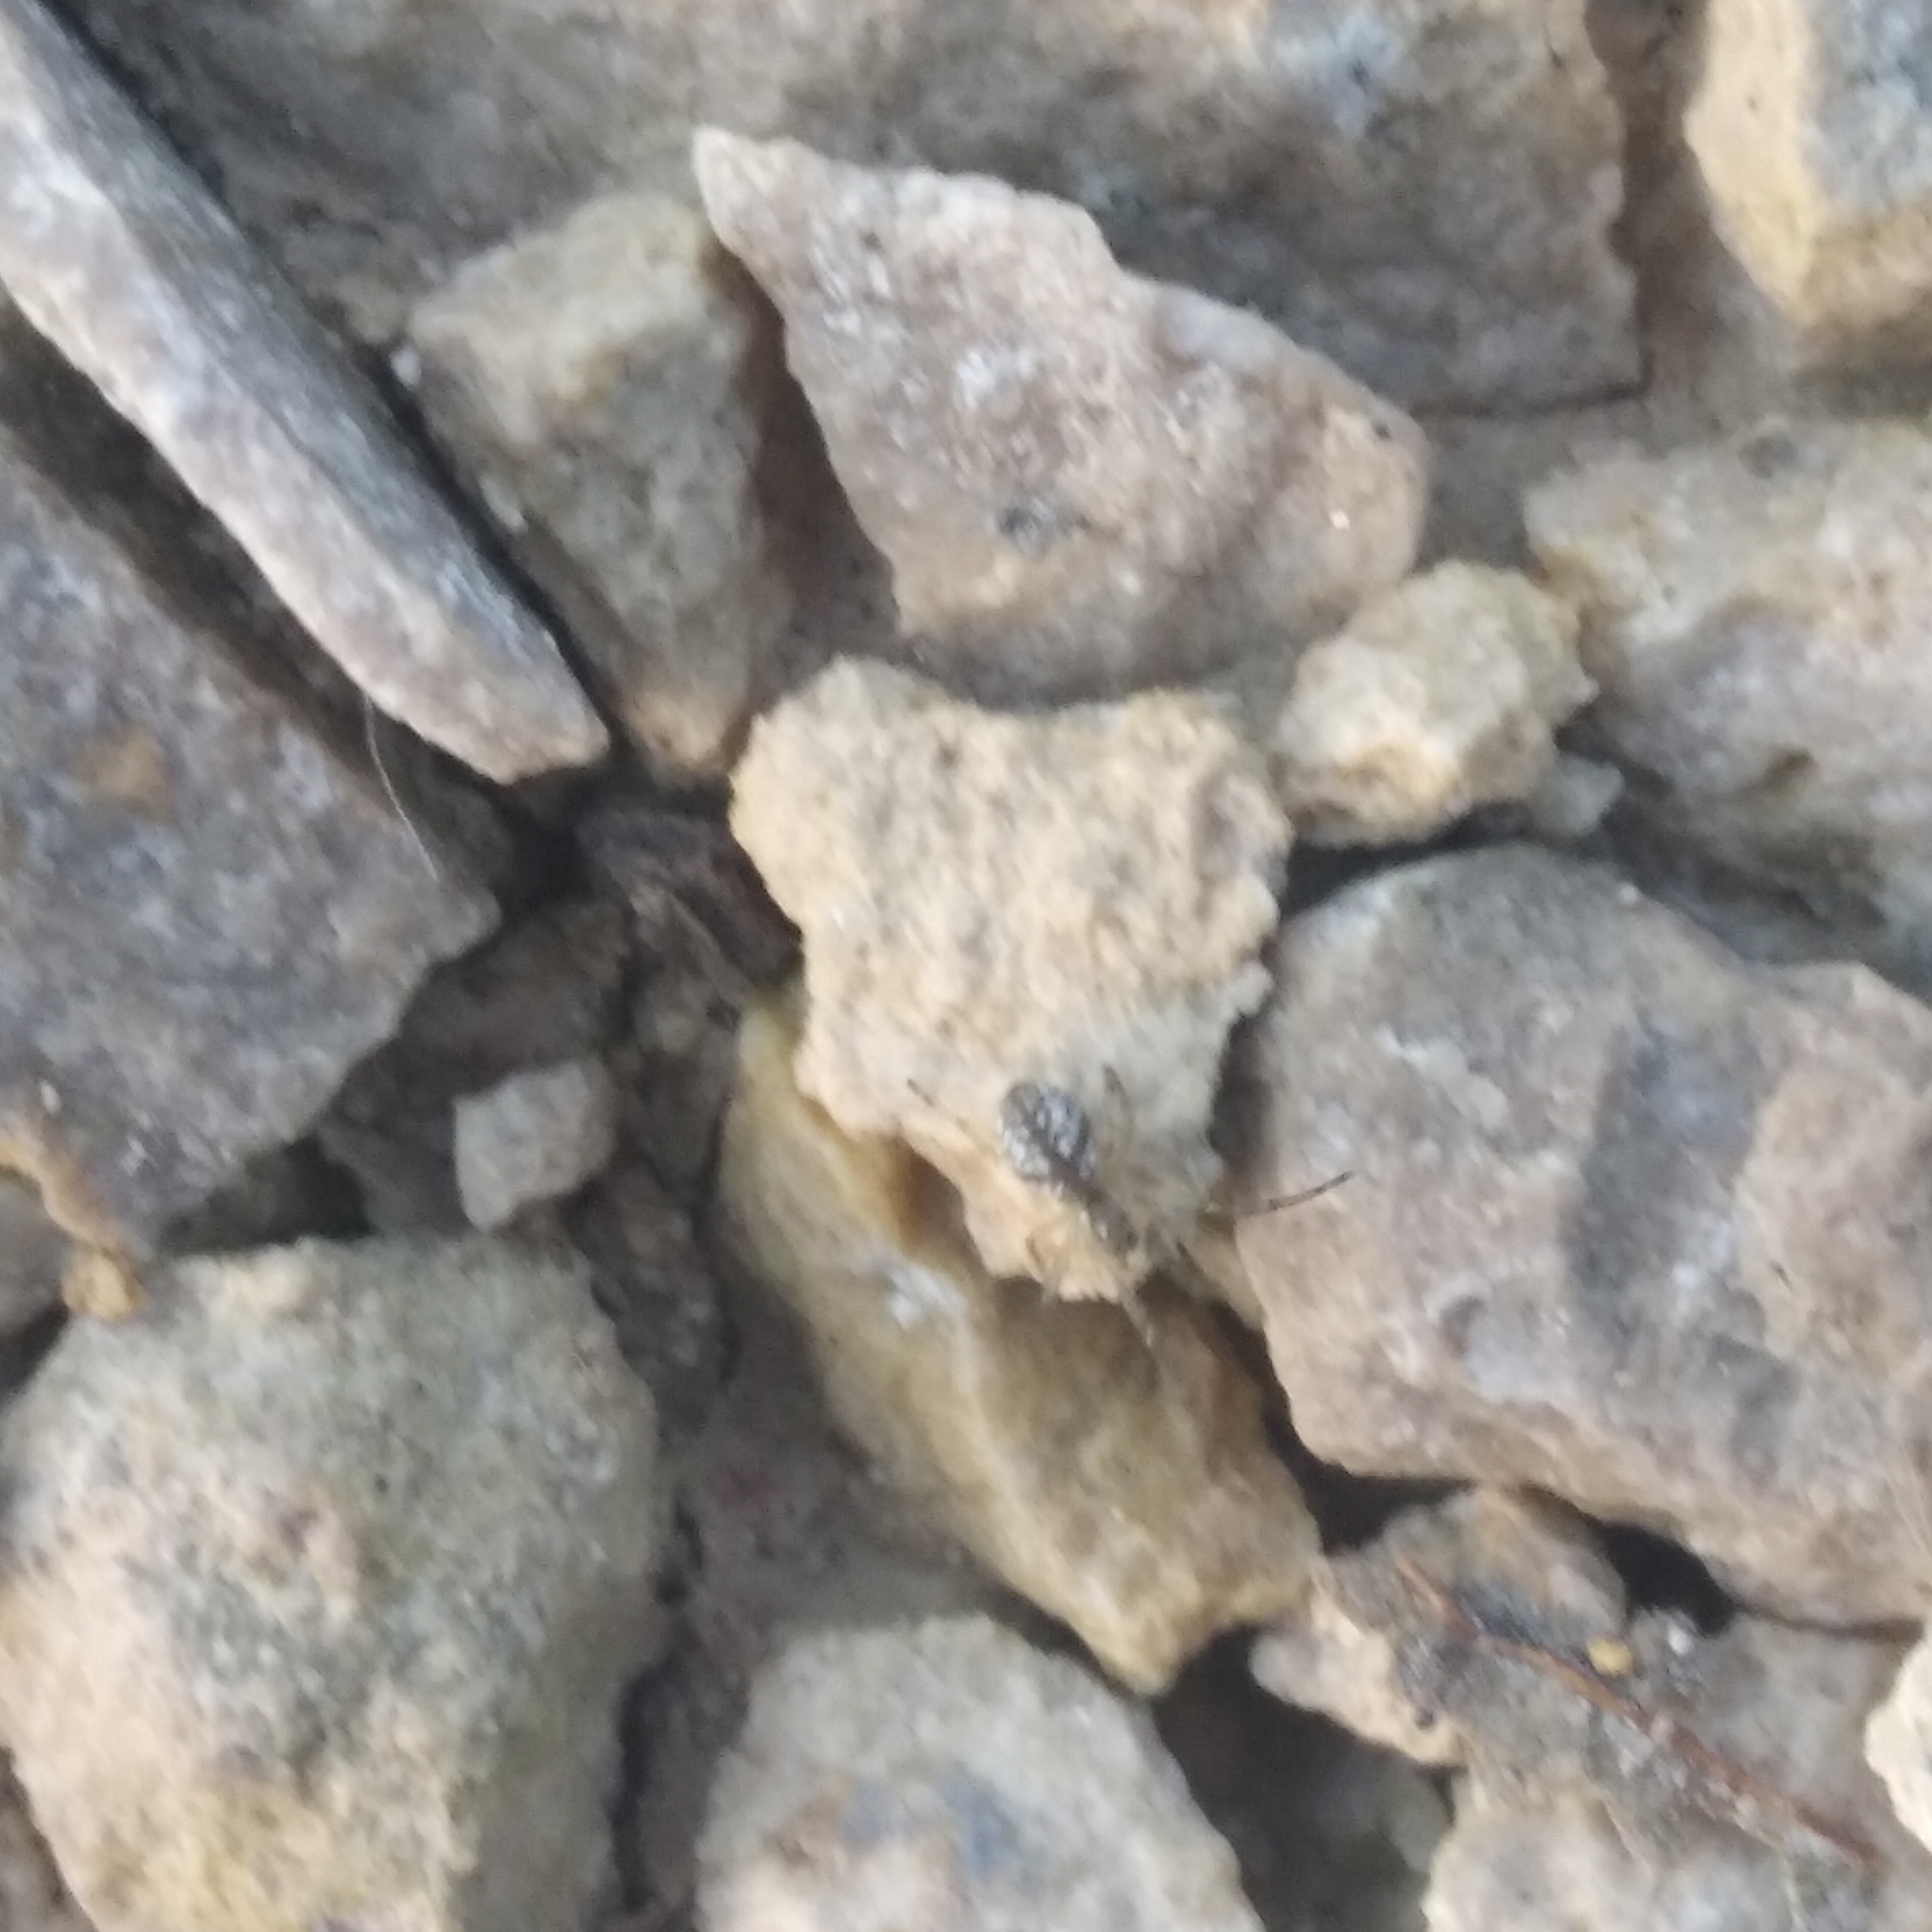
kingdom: Animalia
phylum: Arthropoda
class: Arachnida
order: Araneae
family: Linyphiidae
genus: Floronia
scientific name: Floronia bucculenta
